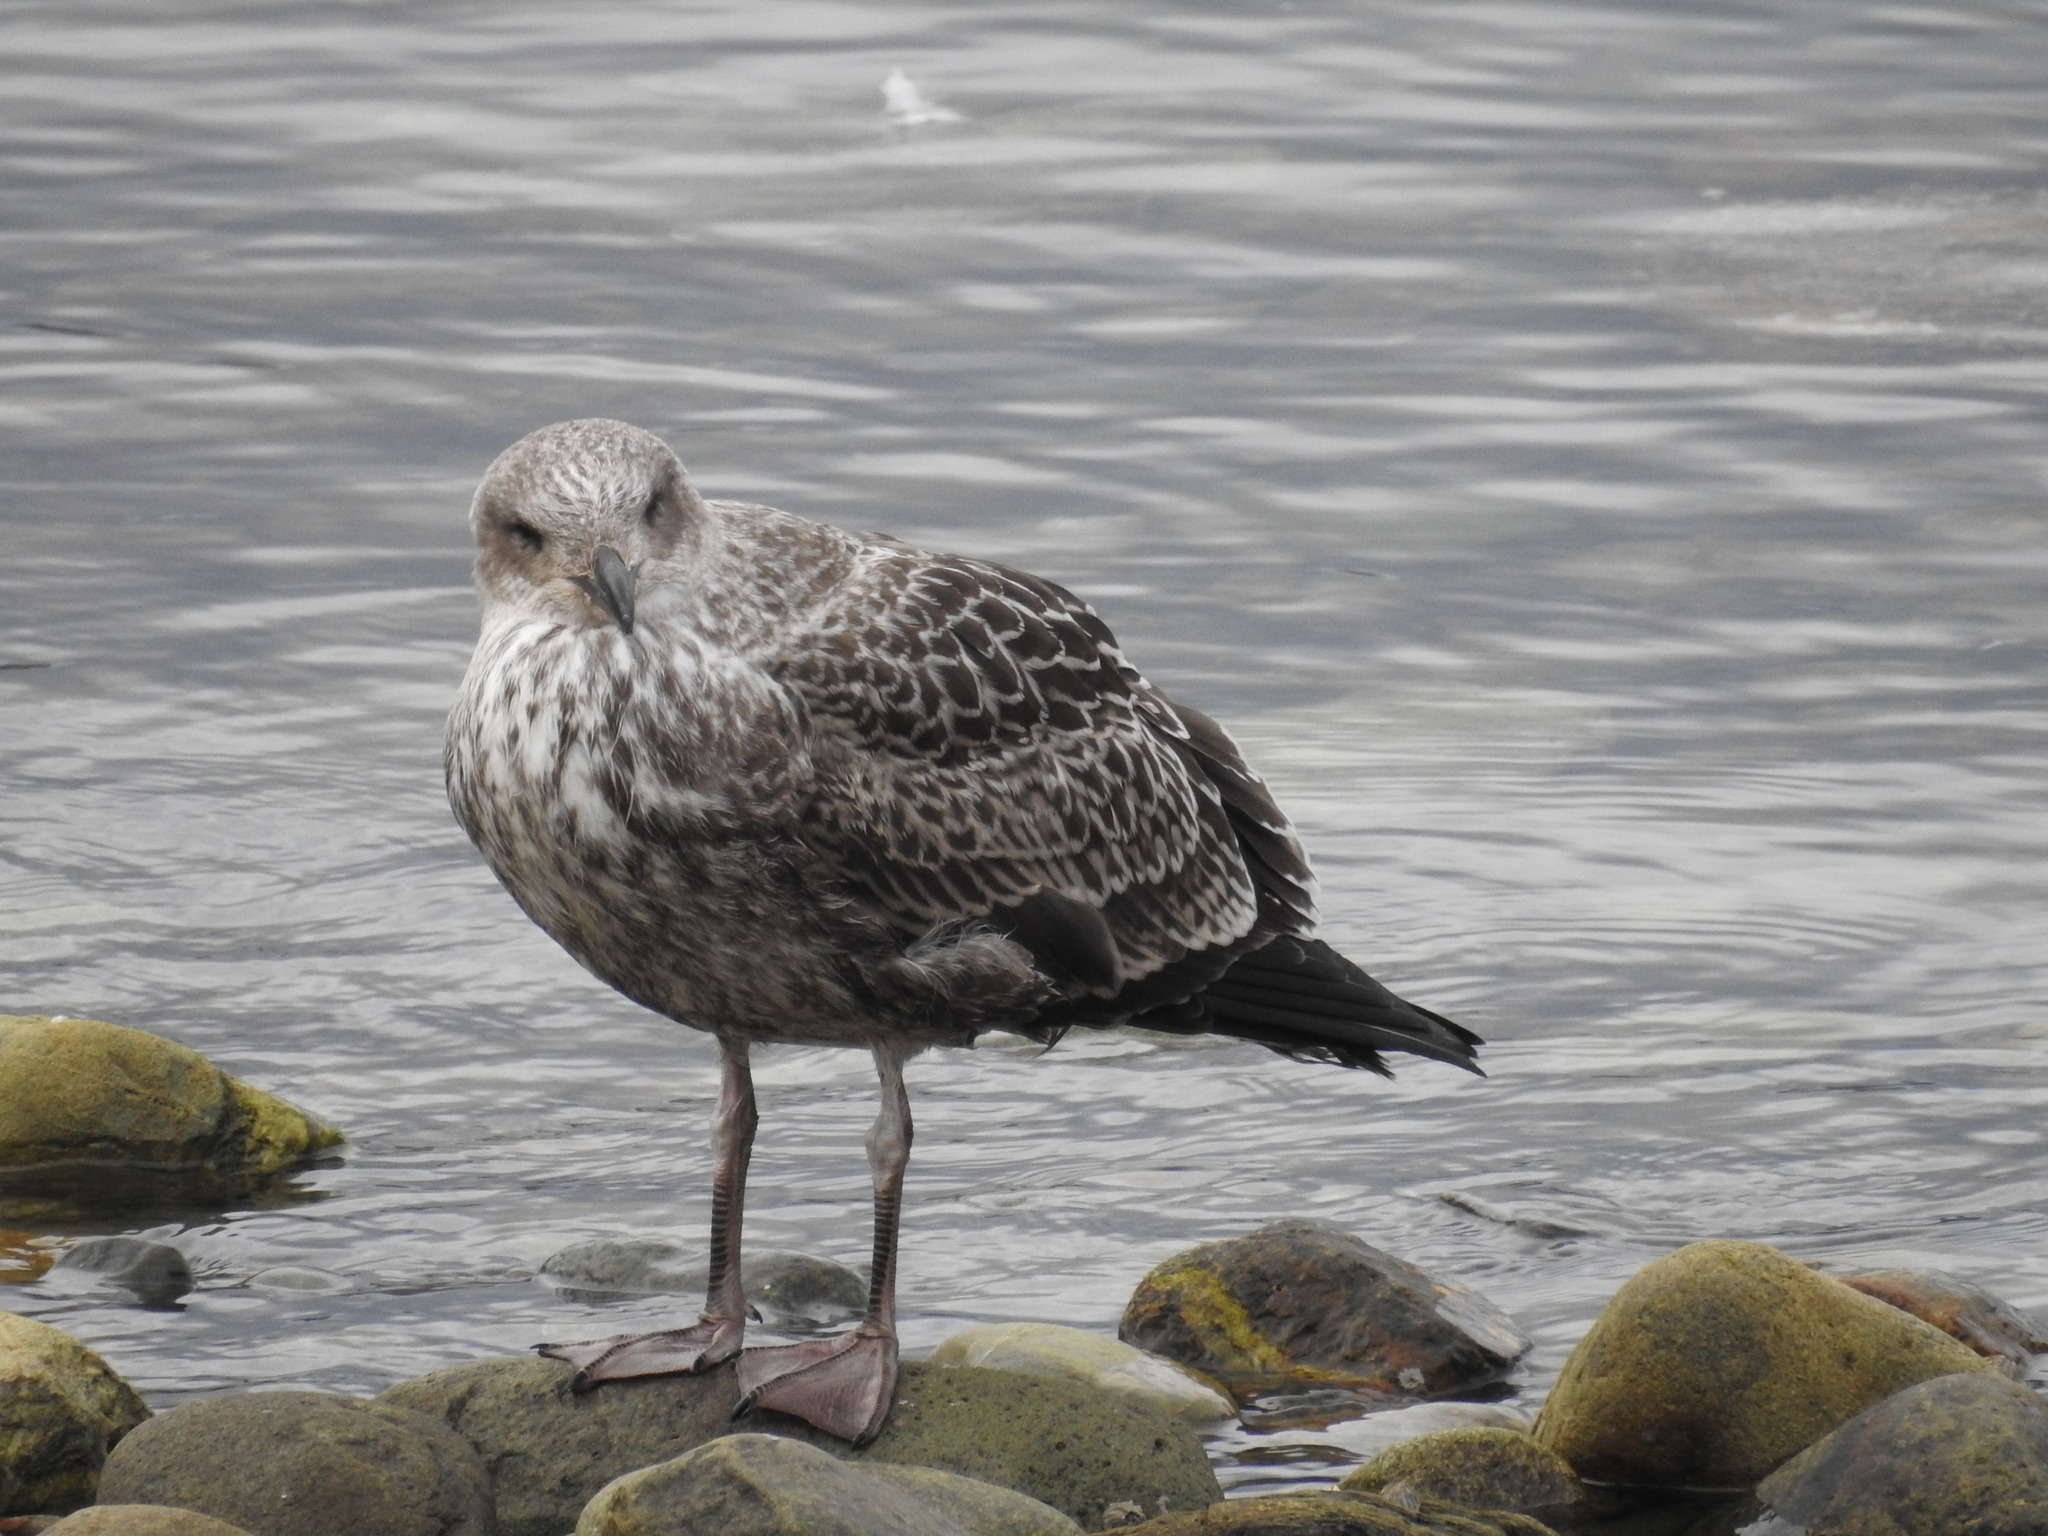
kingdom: Animalia
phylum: Chordata
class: Aves
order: Charadriiformes
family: Laridae
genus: Larus
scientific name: Larus dominicanus
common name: Kelp gull
